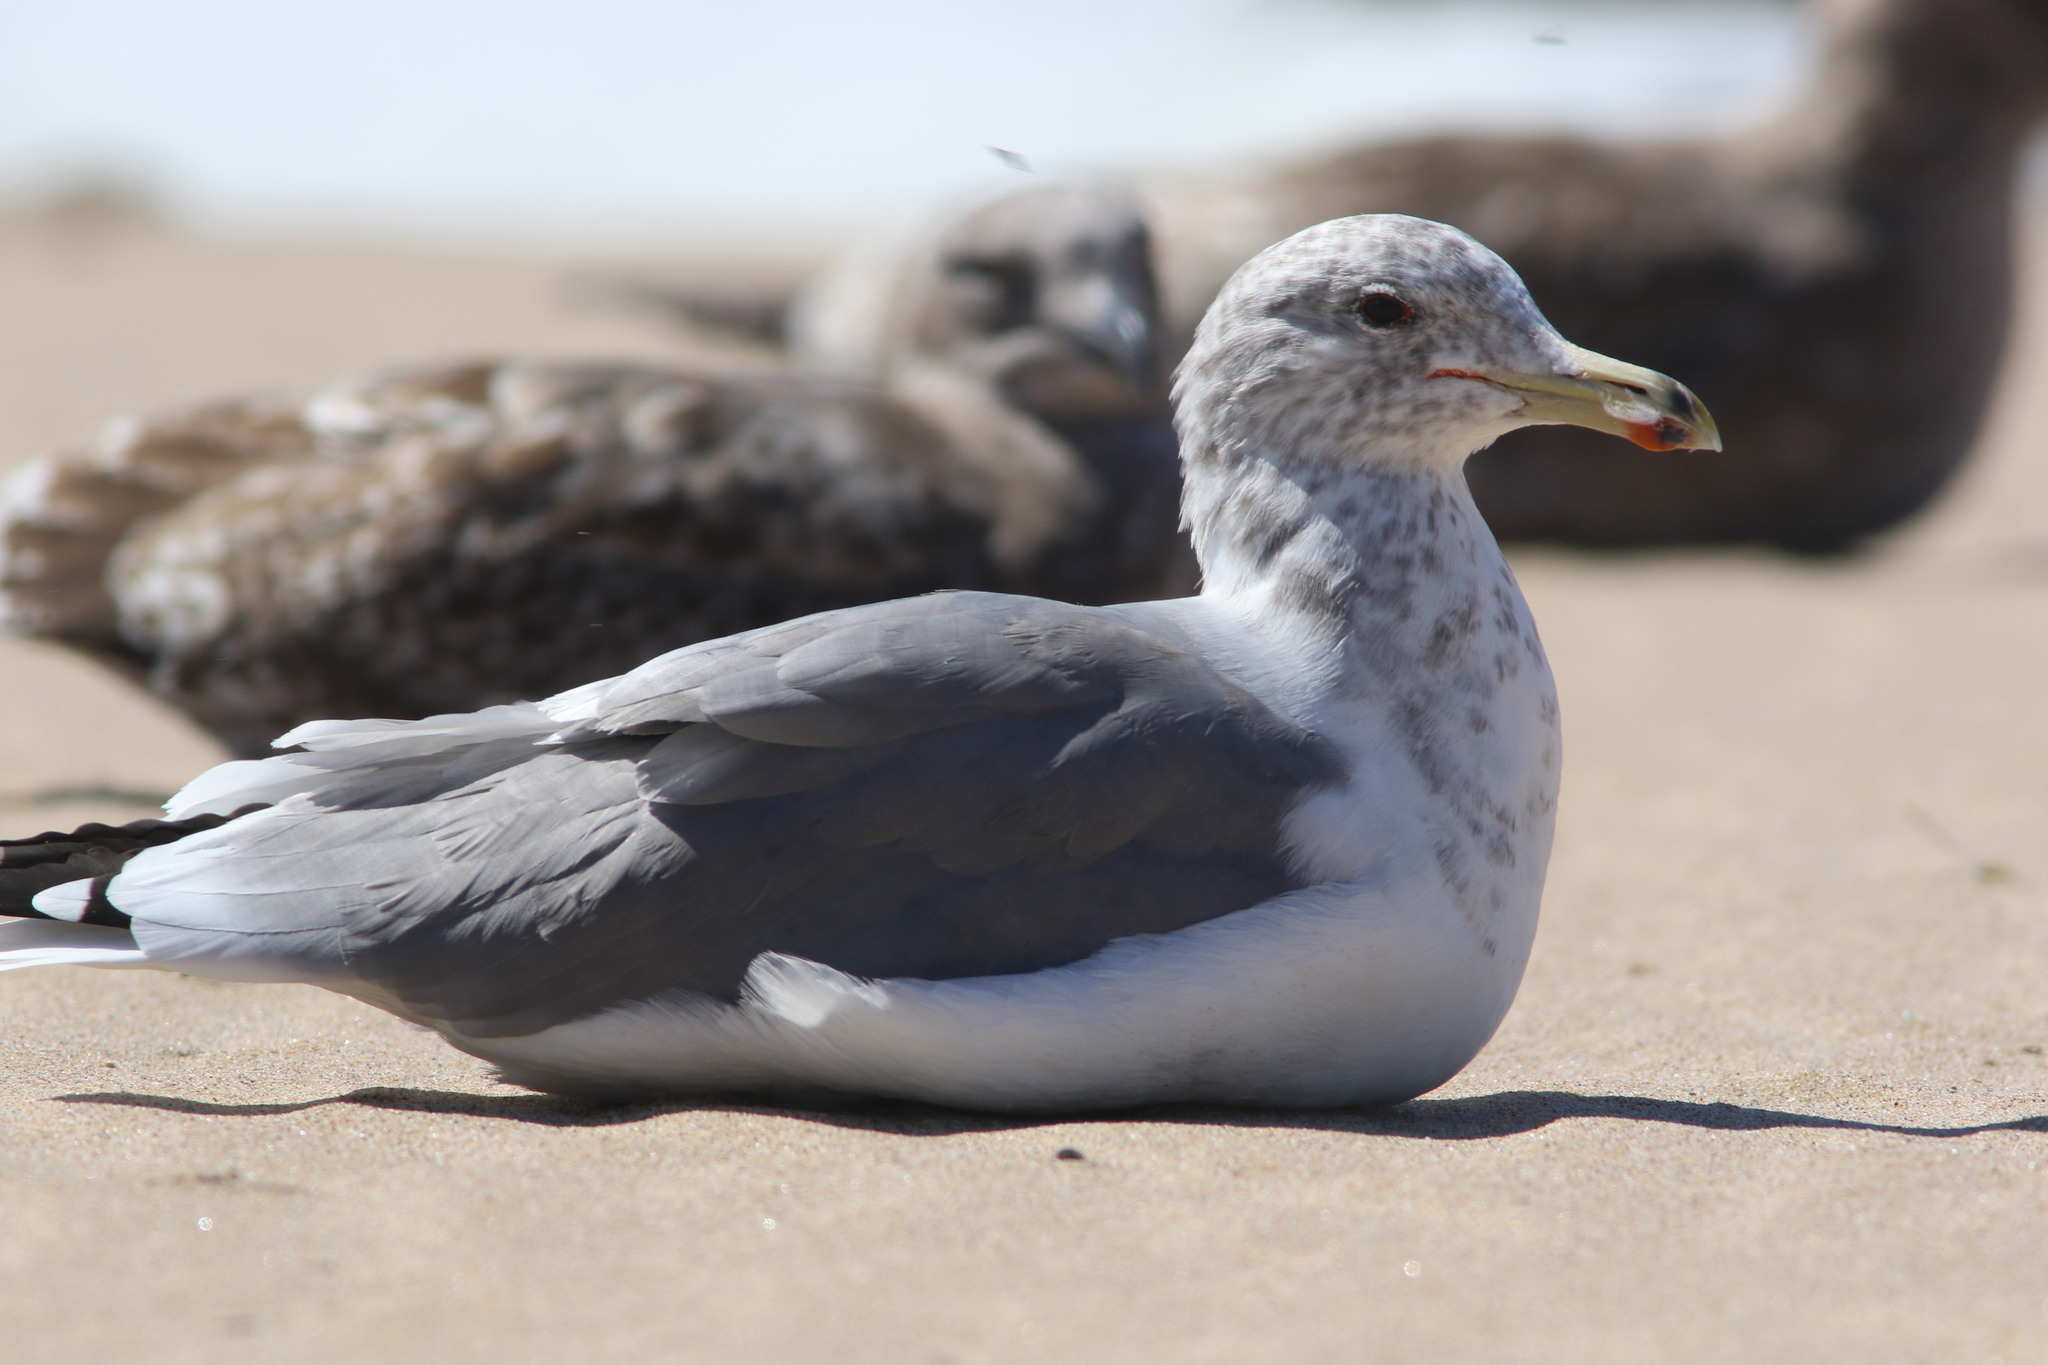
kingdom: Animalia
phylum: Chordata
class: Aves
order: Charadriiformes
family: Laridae
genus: Larus
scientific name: Larus californicus
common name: California gull
